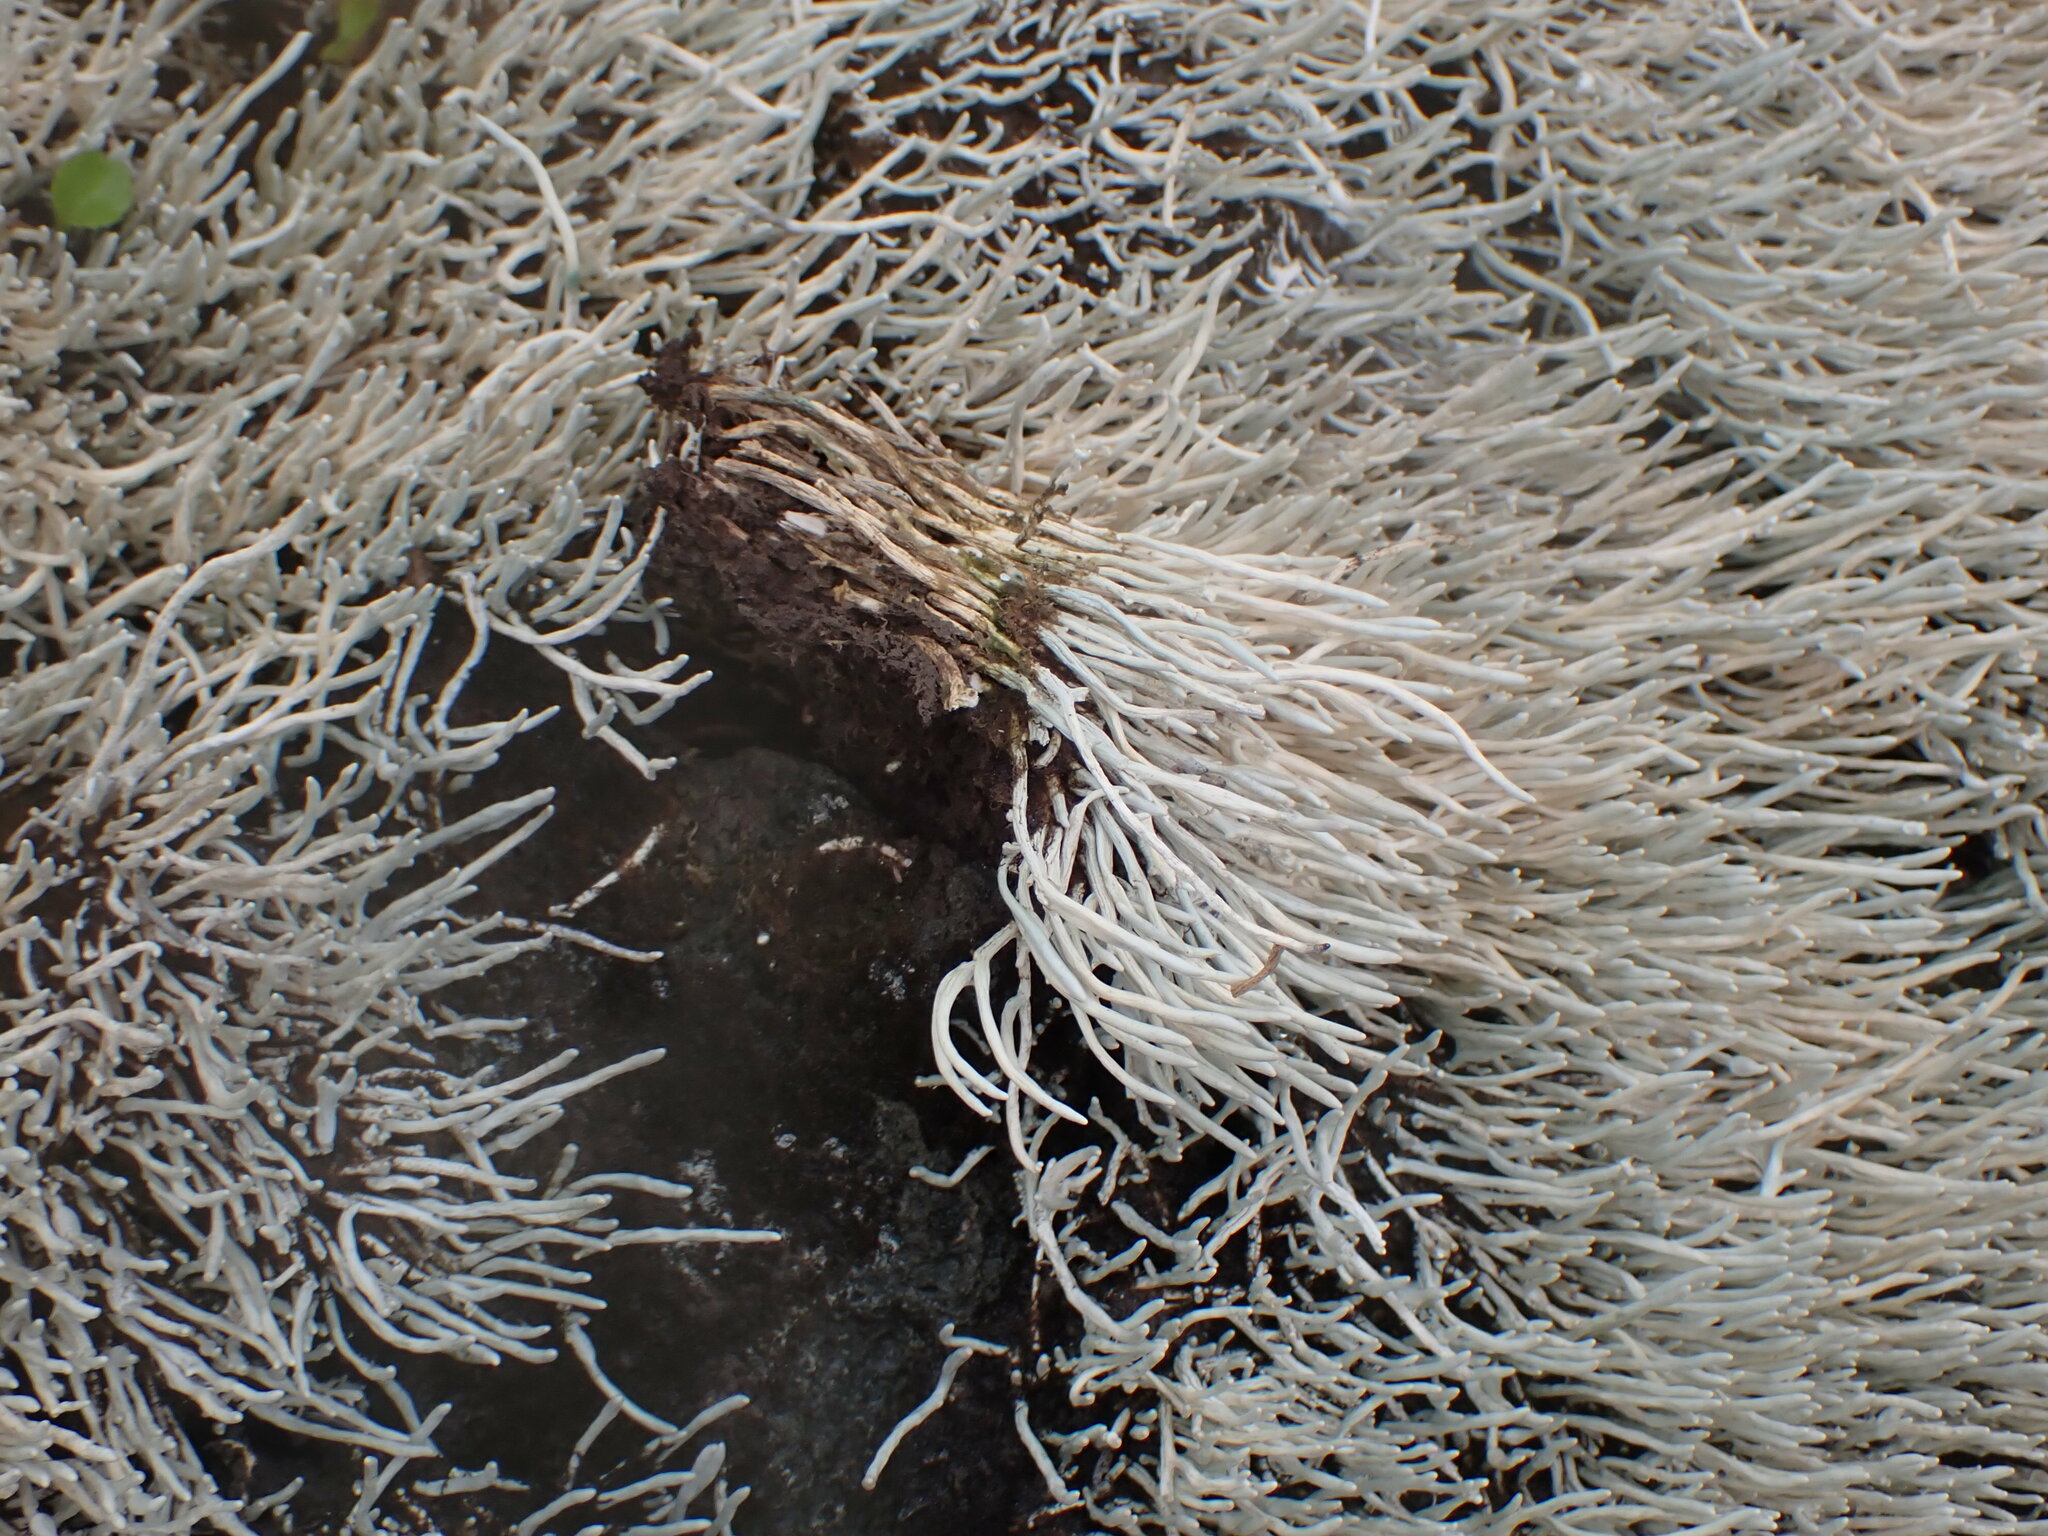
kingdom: Fungi
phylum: Ascomycota
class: Lecanoromycetes
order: Pertusariales
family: Icmadophilaceae
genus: Siphula
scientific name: Siphula ceratites
